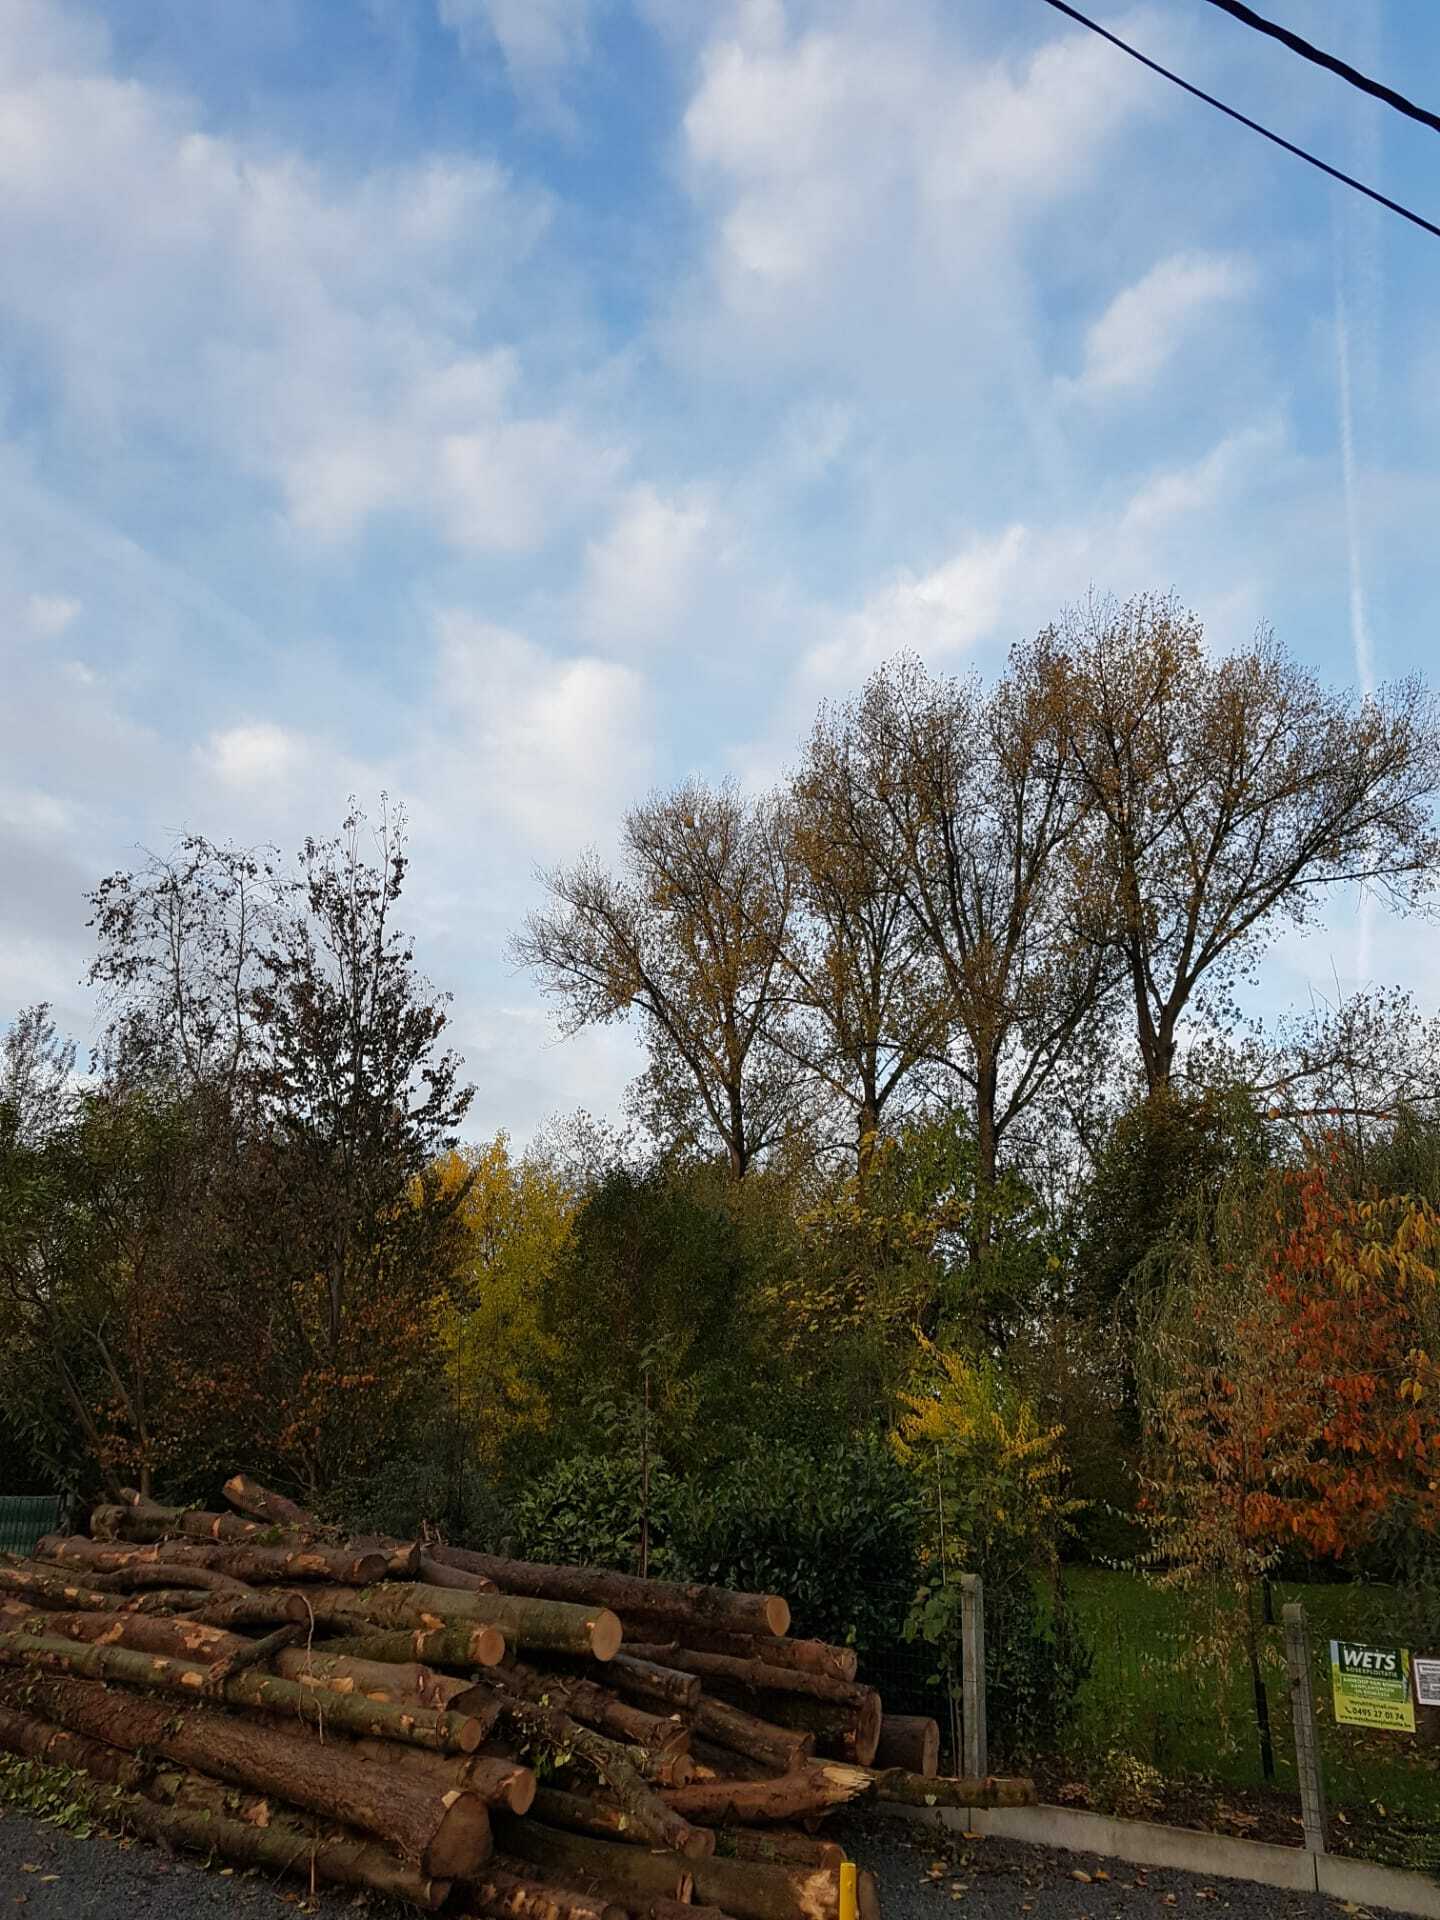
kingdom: Animalia
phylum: Arthropoda
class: Insecta
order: Hymenoptera
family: Vespidae
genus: Vespa
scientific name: Vespa velutina
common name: Asian hornet
